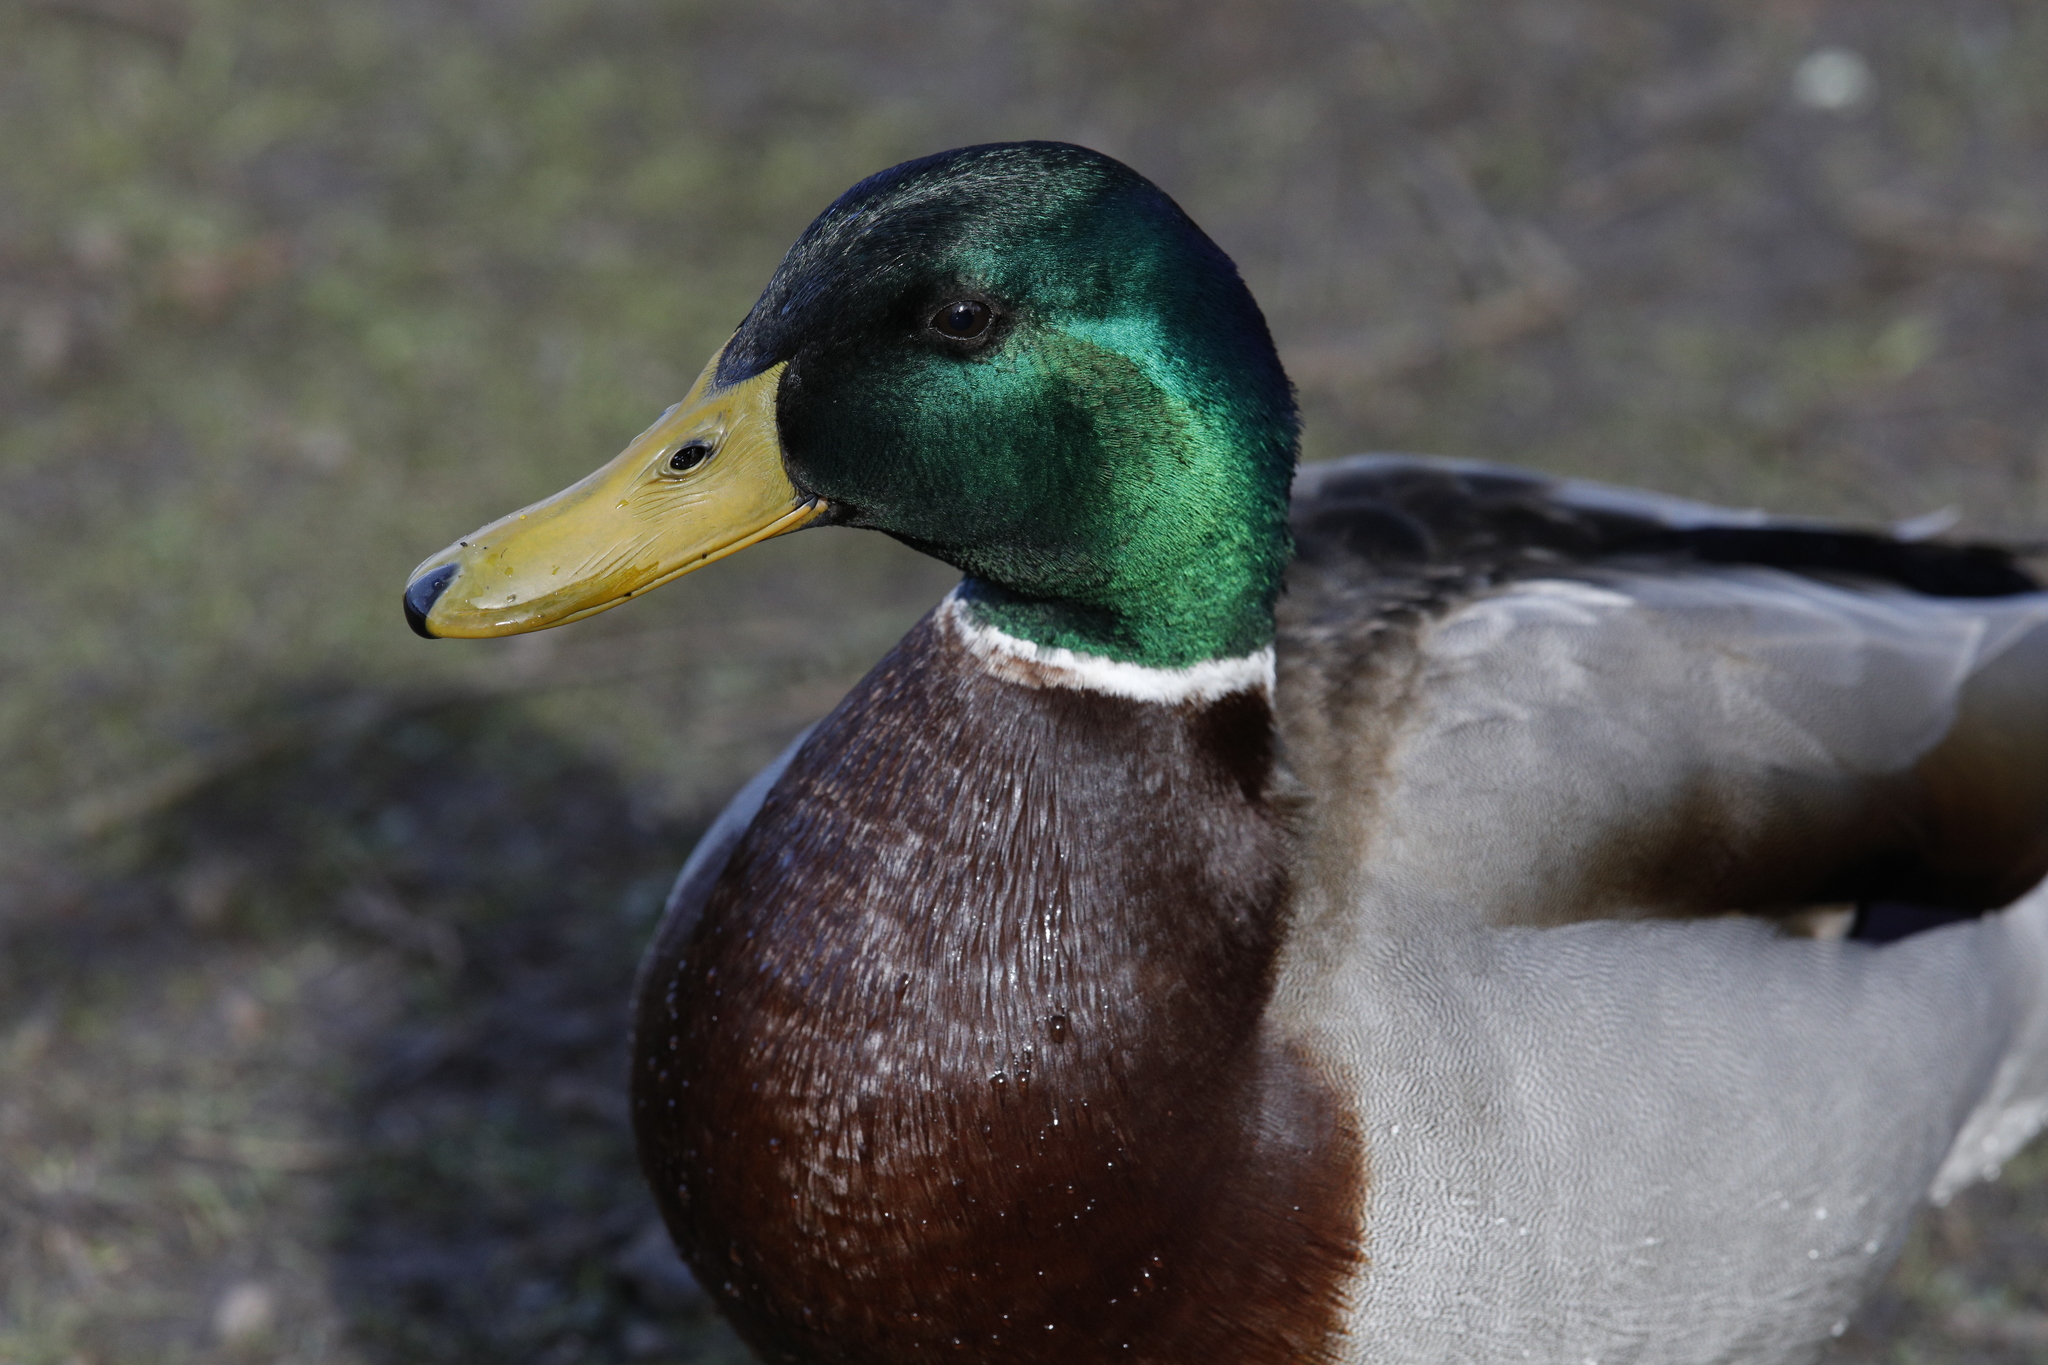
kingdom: Animalia
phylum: Chordata
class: Aves
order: Anseriformes
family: Anatidae
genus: Anas
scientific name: Anas platyrhynchos
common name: Mallard
